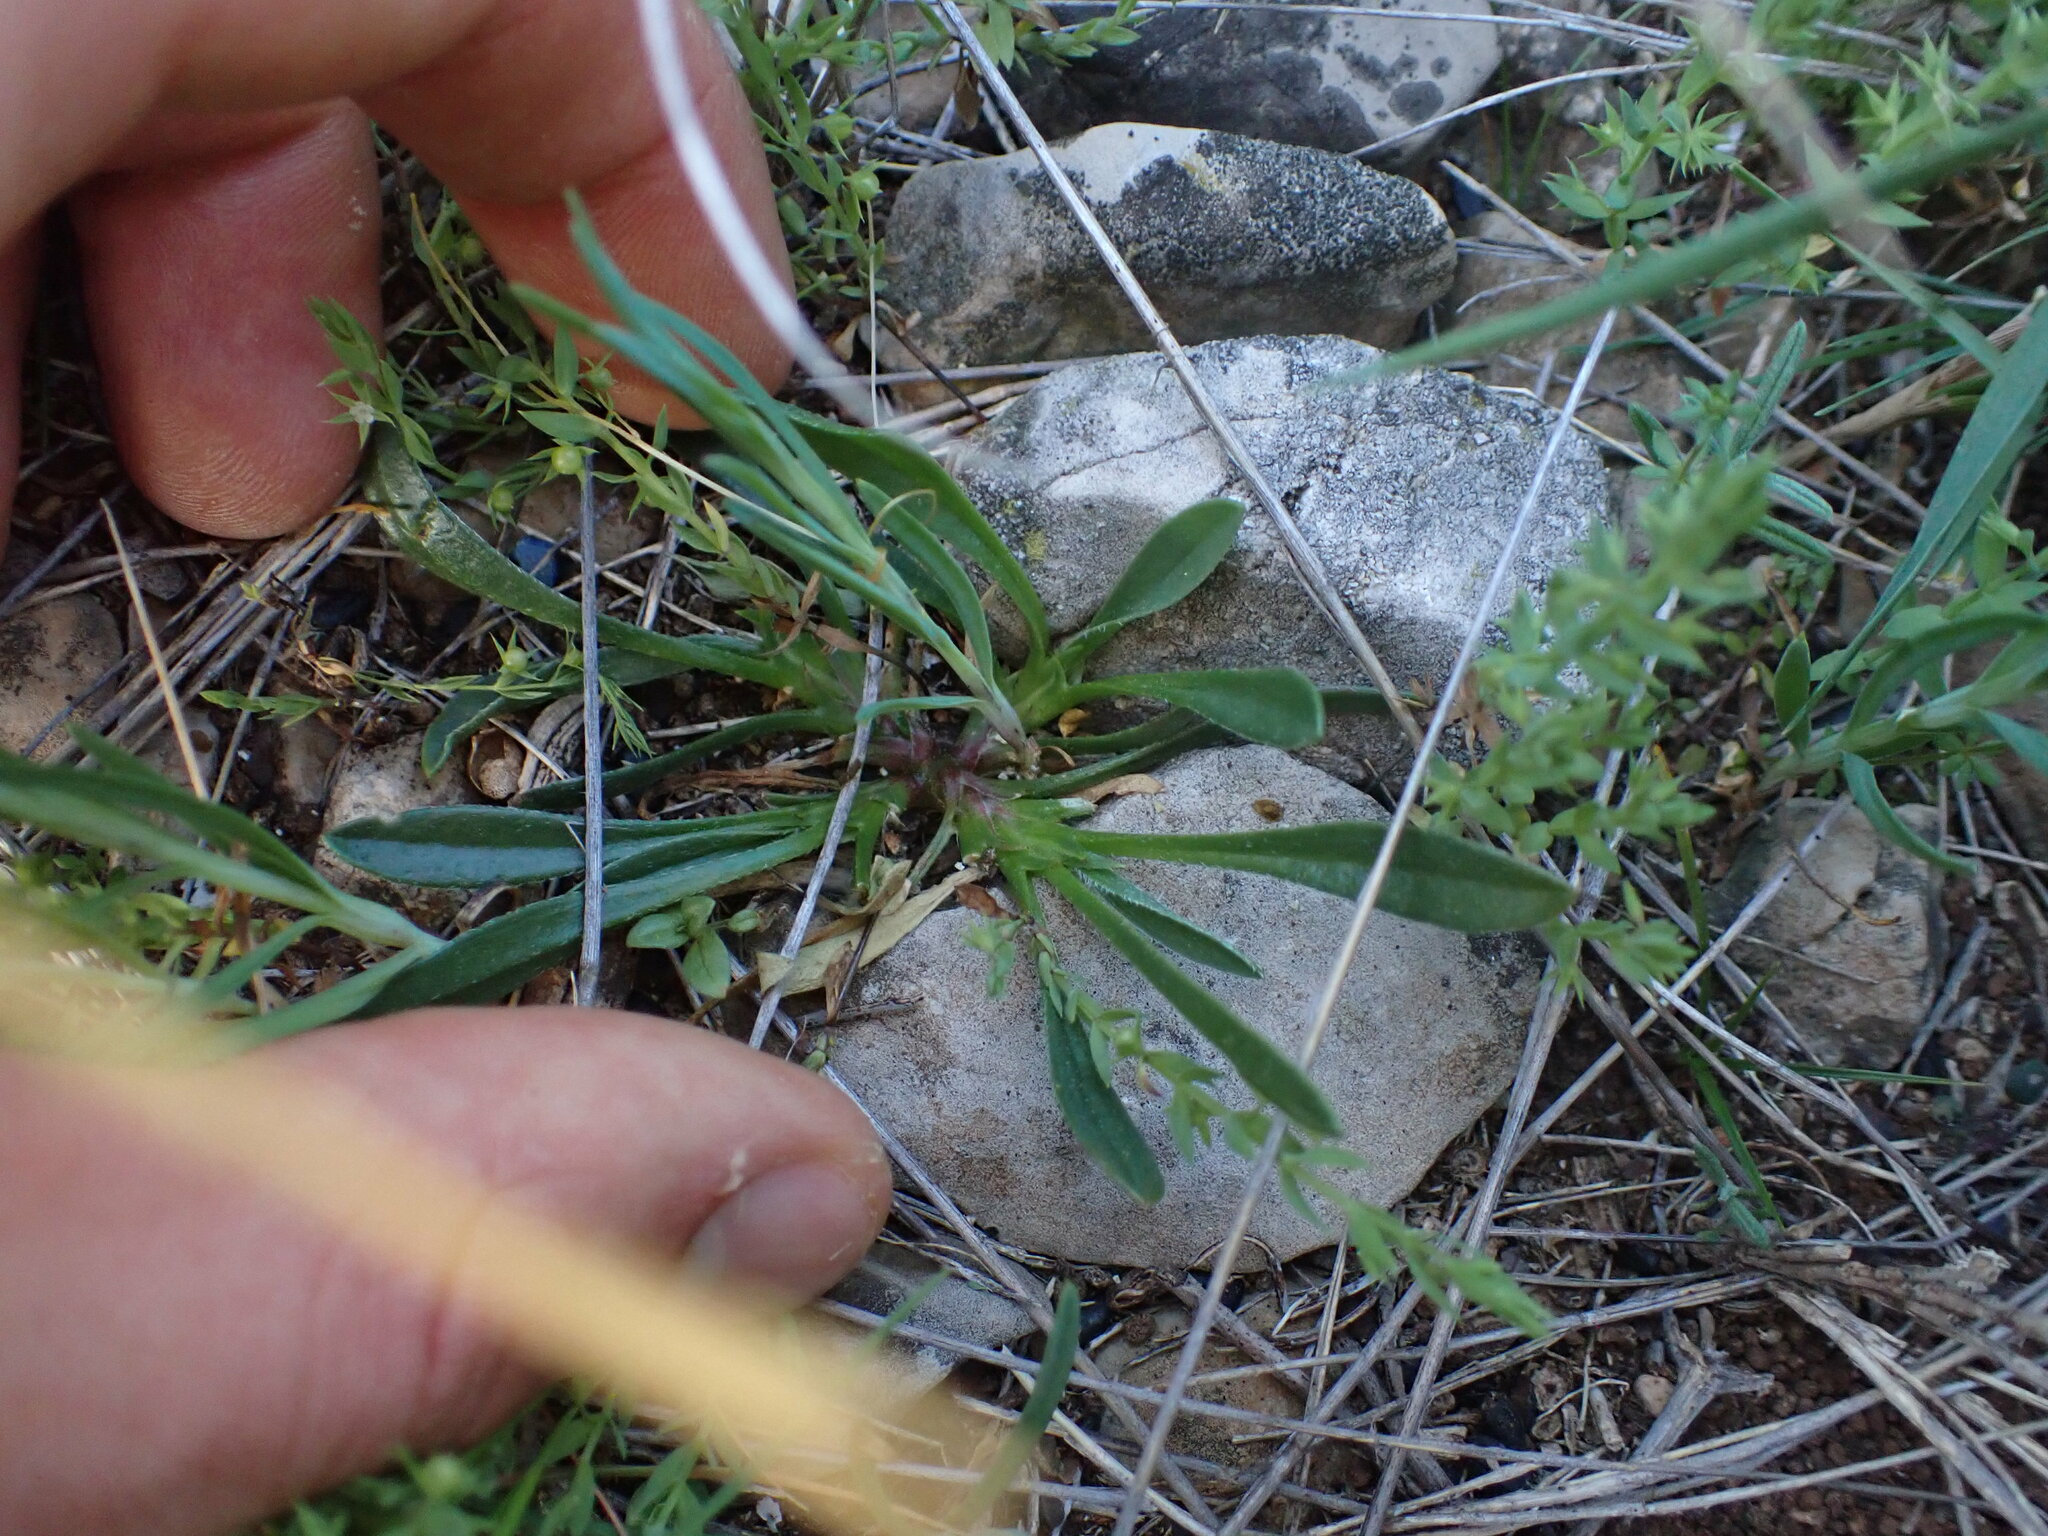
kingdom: Plantae
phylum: Tracheophyta
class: Magnoliopsida
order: Fabales
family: Fabaceae
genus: Scorpiurus
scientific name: Scorpiurus muricatus
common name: Caterpillar-plant
